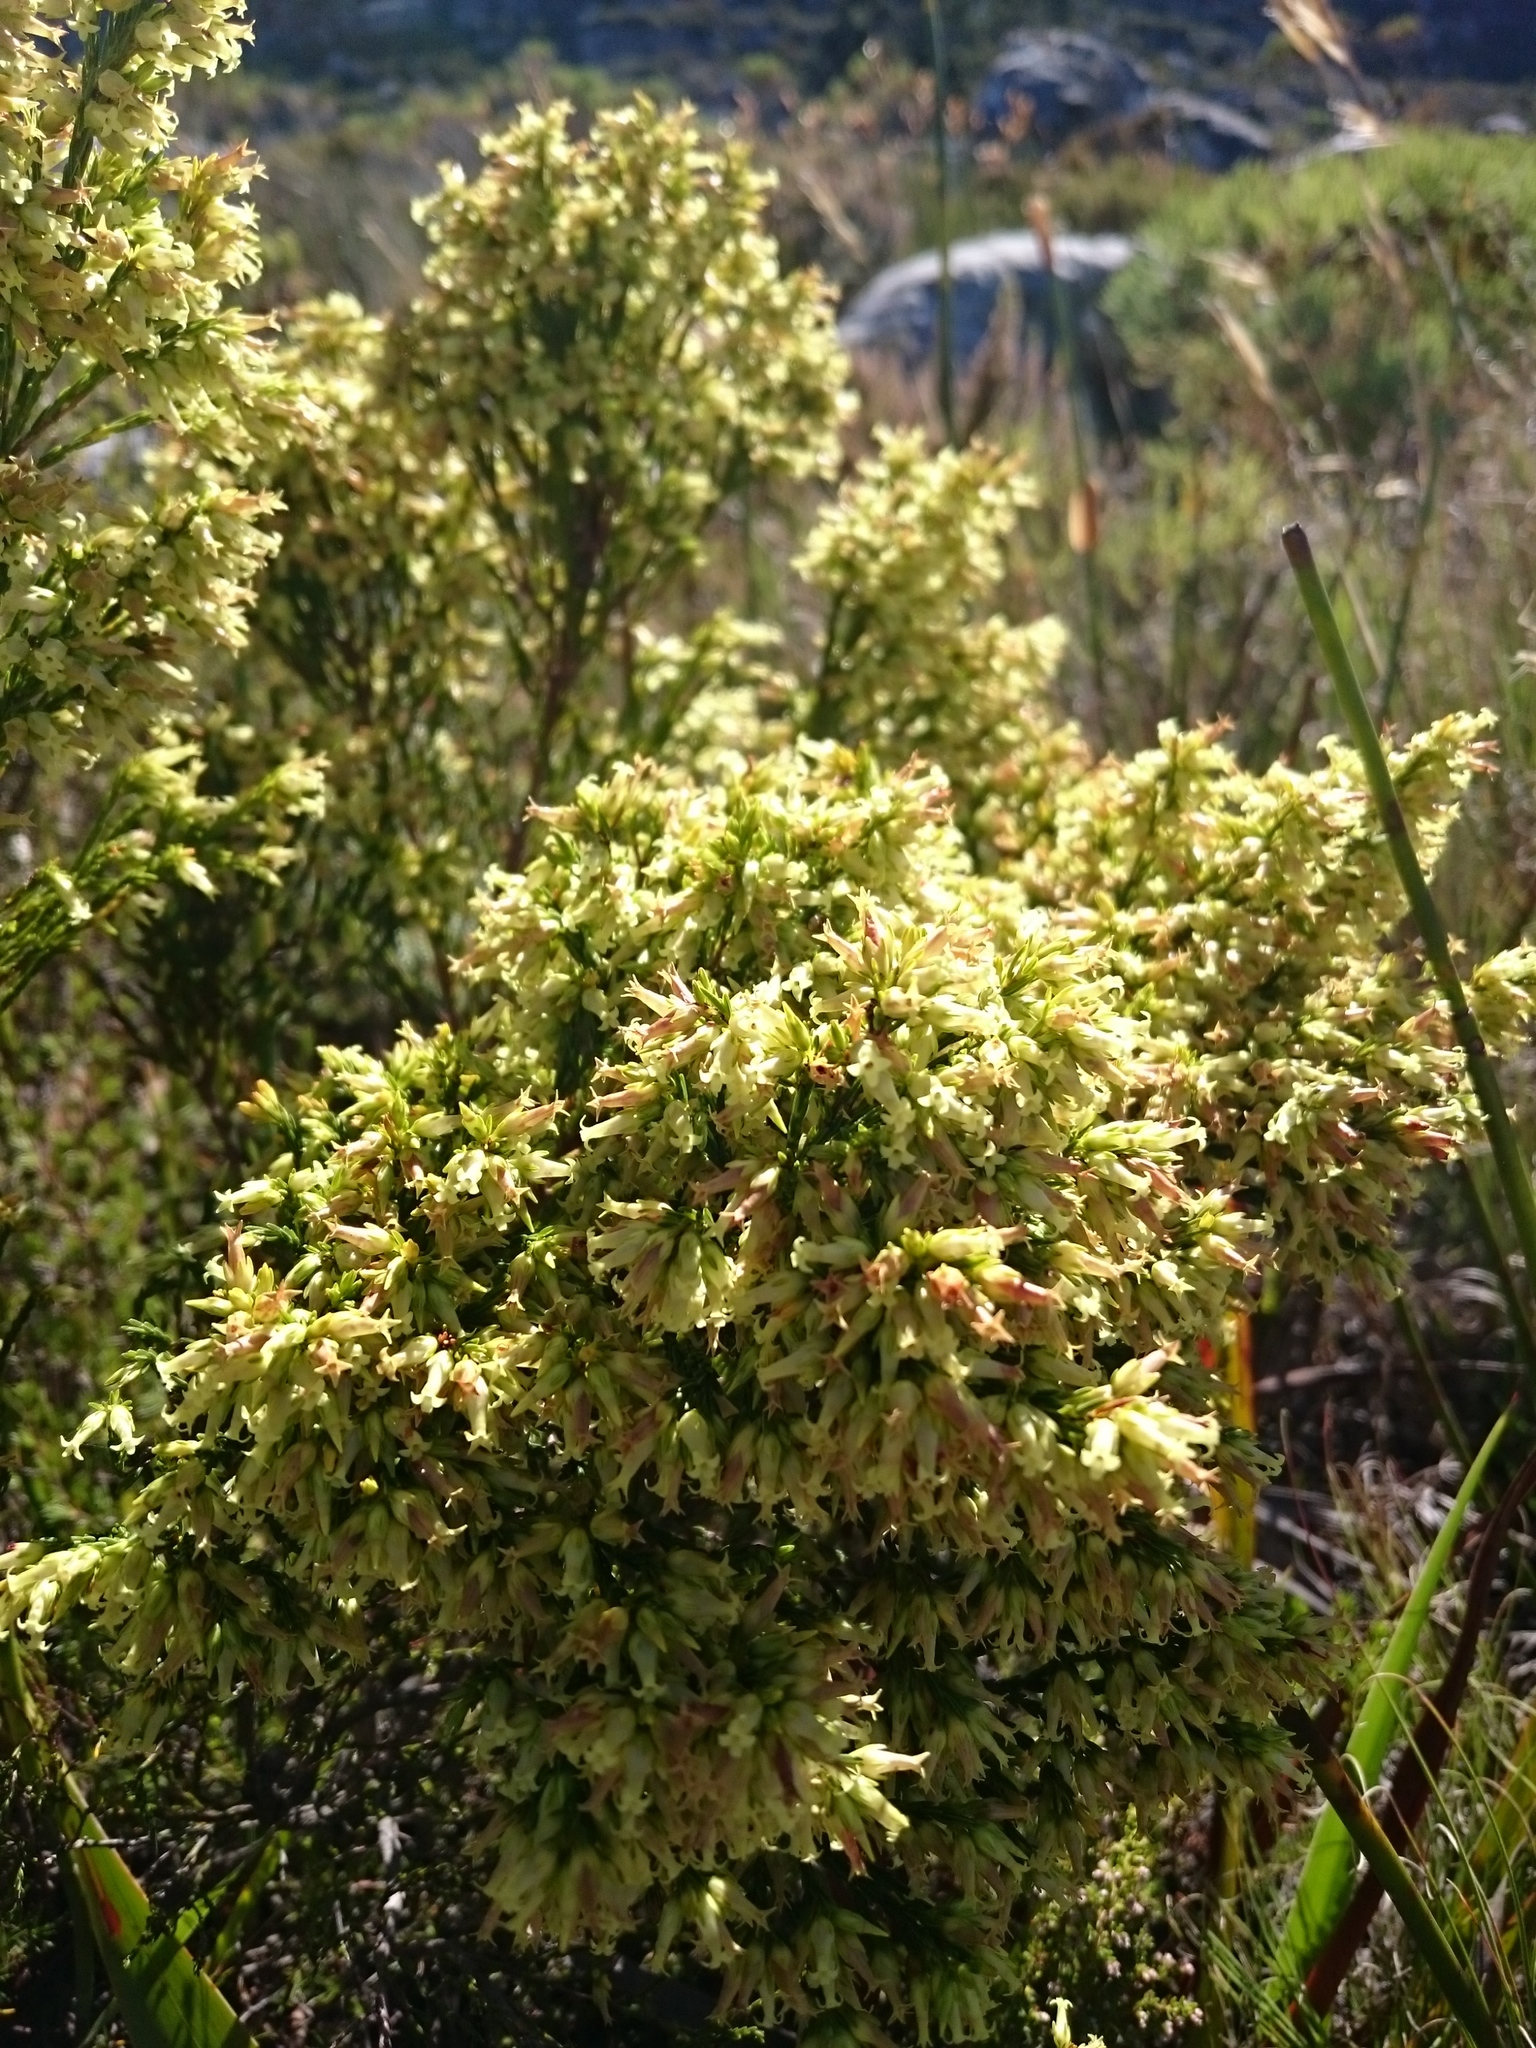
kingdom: Plantae
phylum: Tracheophyta
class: Magnoliopsida
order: Ericales
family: Ericaceae
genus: Erica
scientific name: Erica lutea
